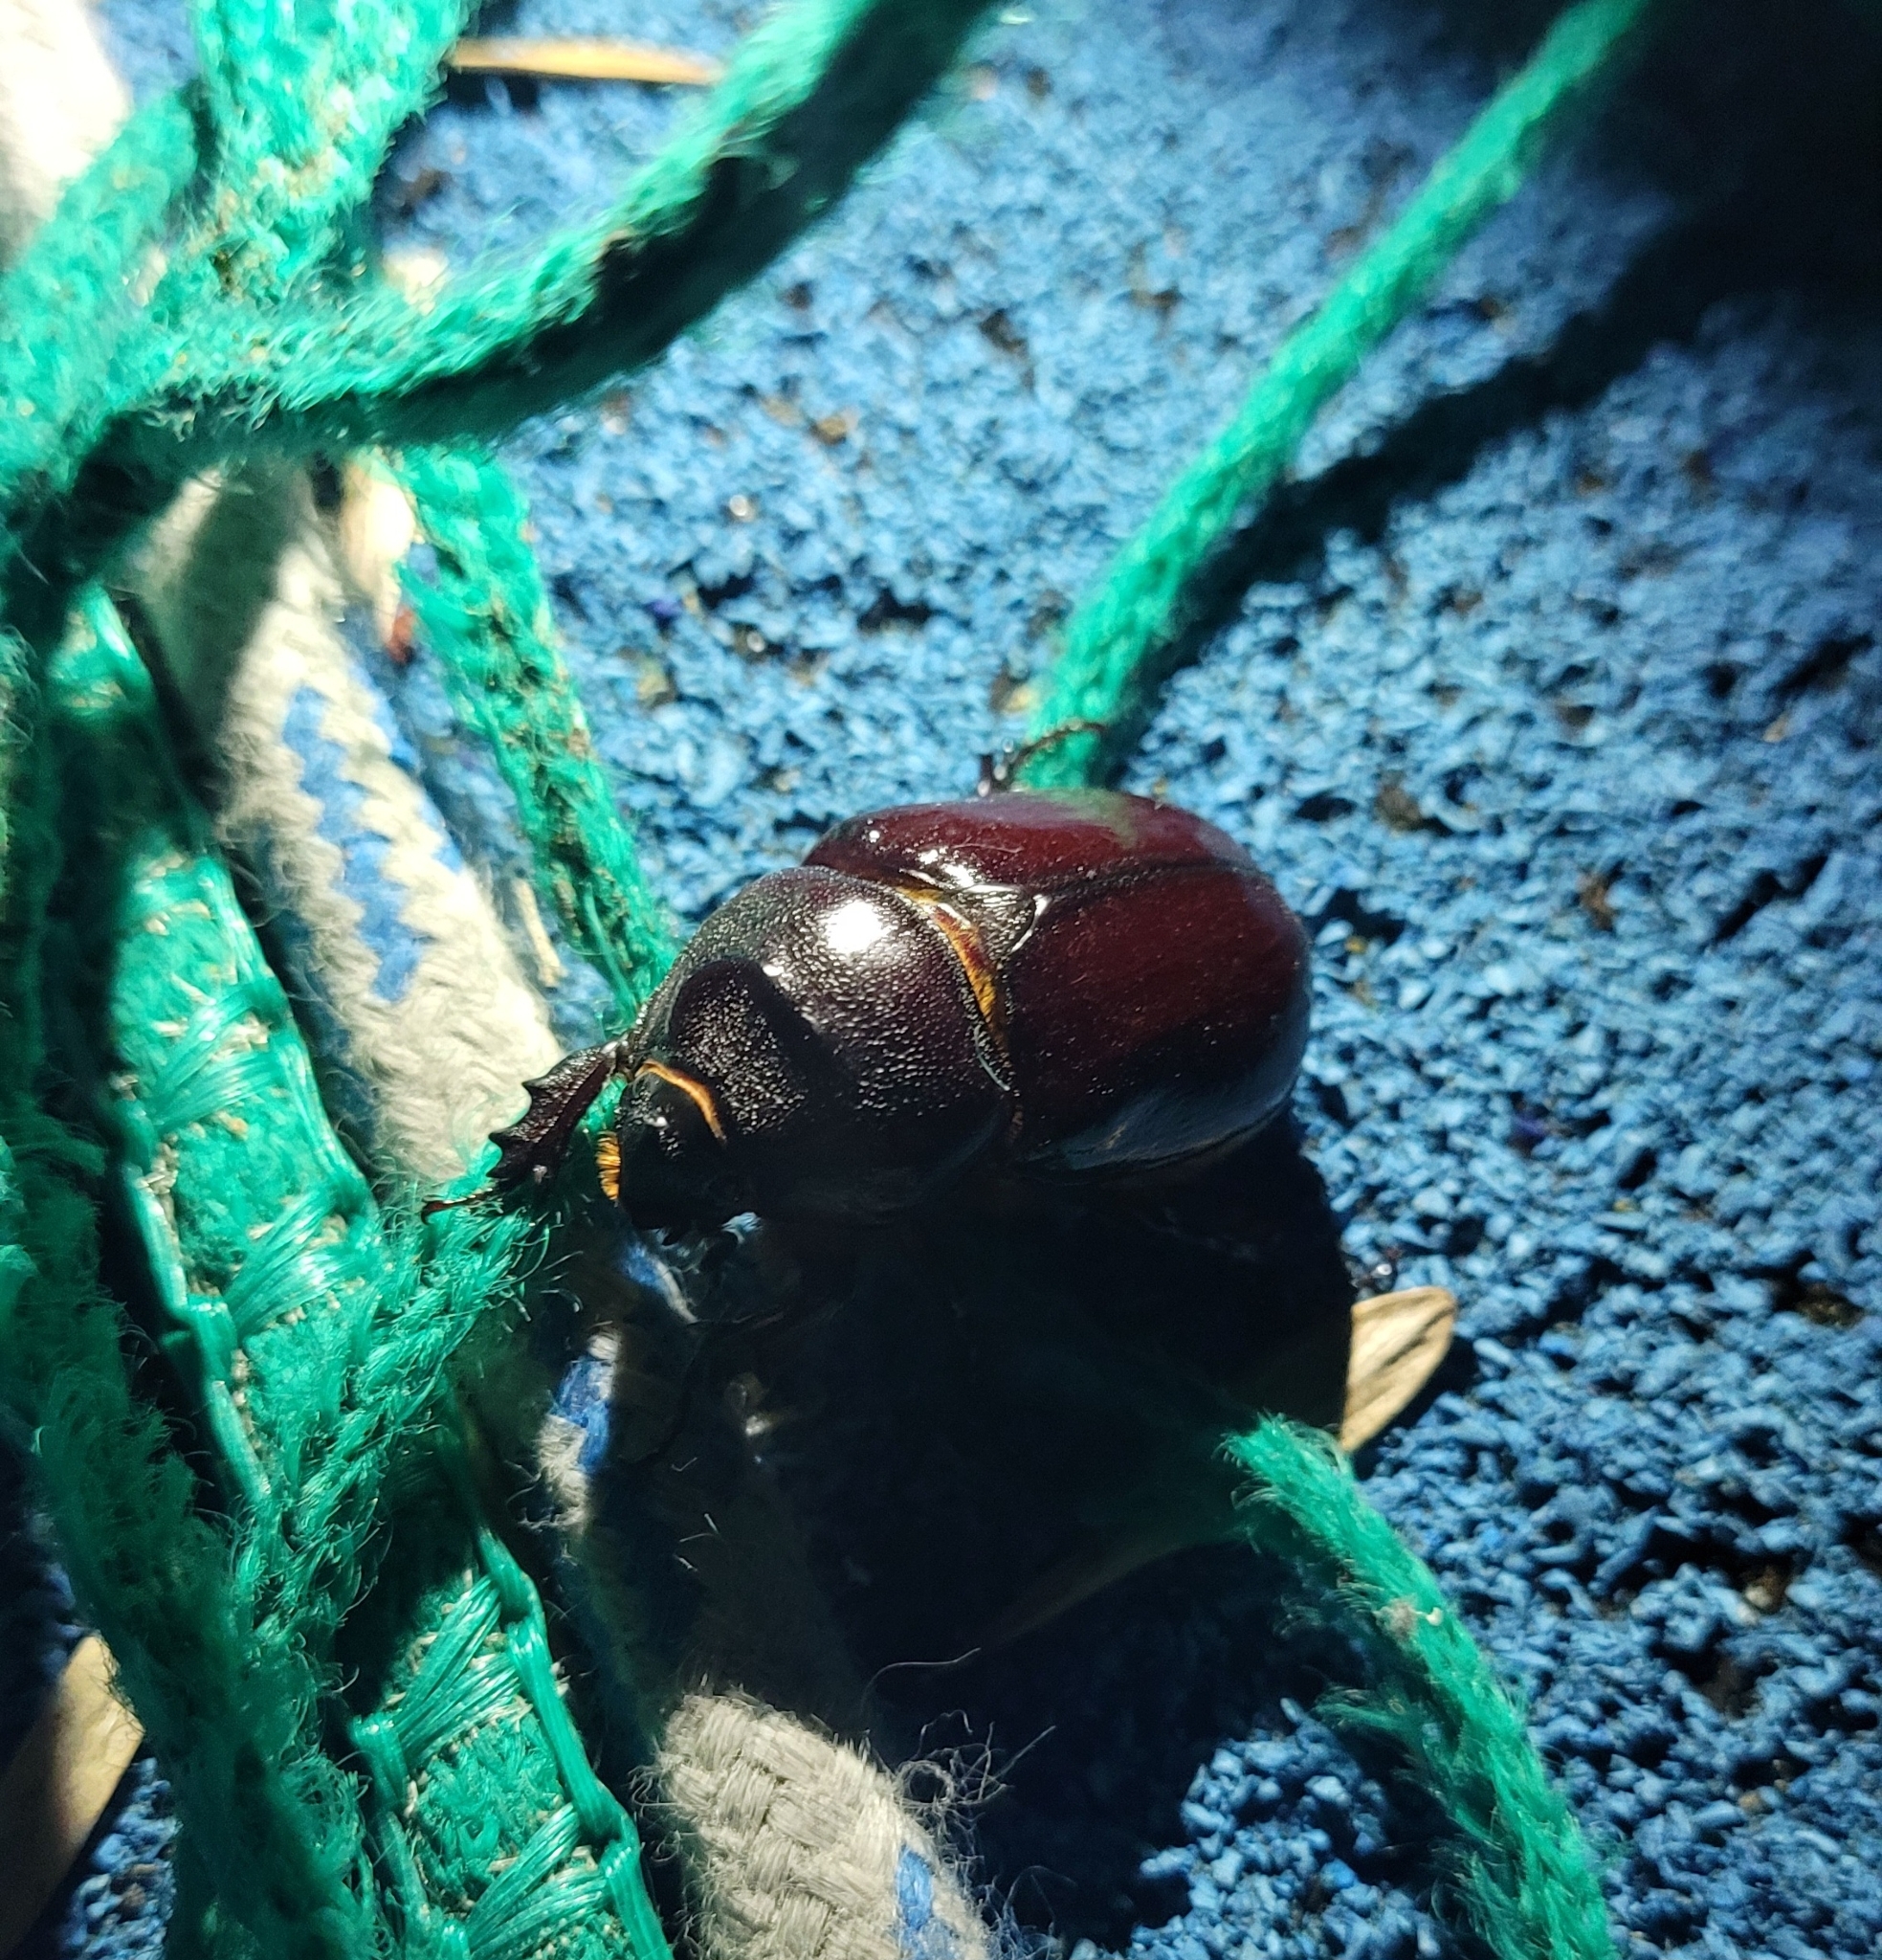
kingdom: Animalia
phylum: Arthropoda
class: Insecta
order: Coleoptera
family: Scarabaeidae
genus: Oryctes
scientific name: Oryctes nasicornis
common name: European rhinoceros beetle
